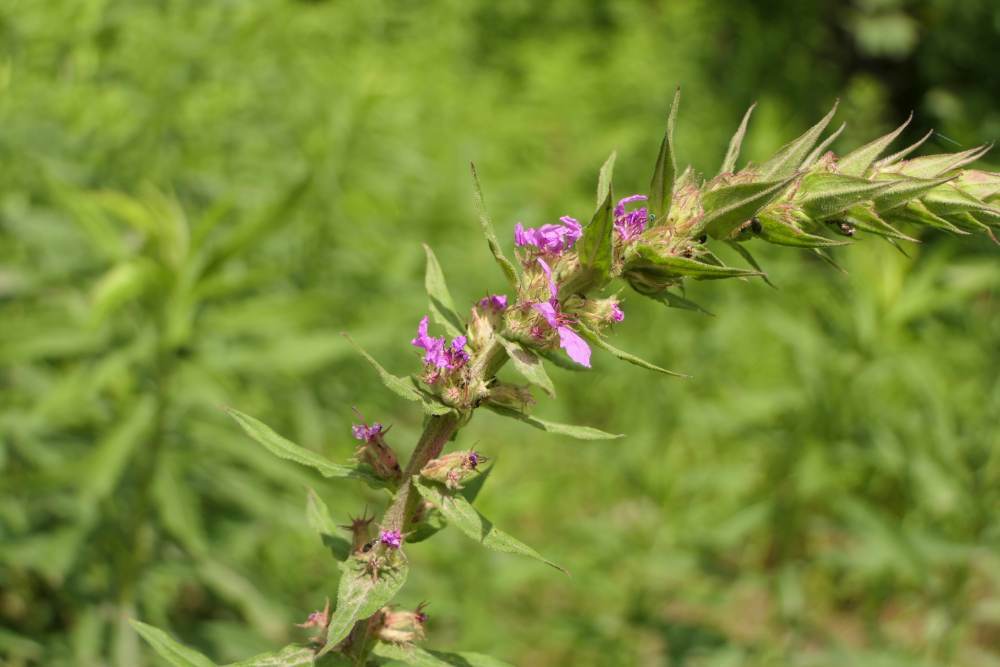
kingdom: Plantae
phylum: Tracheophyta
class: Magnoliopsida
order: Myrtales
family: Lythraceae
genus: Lythrum
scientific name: Lythrum salicaria
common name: Purple loosestrife
